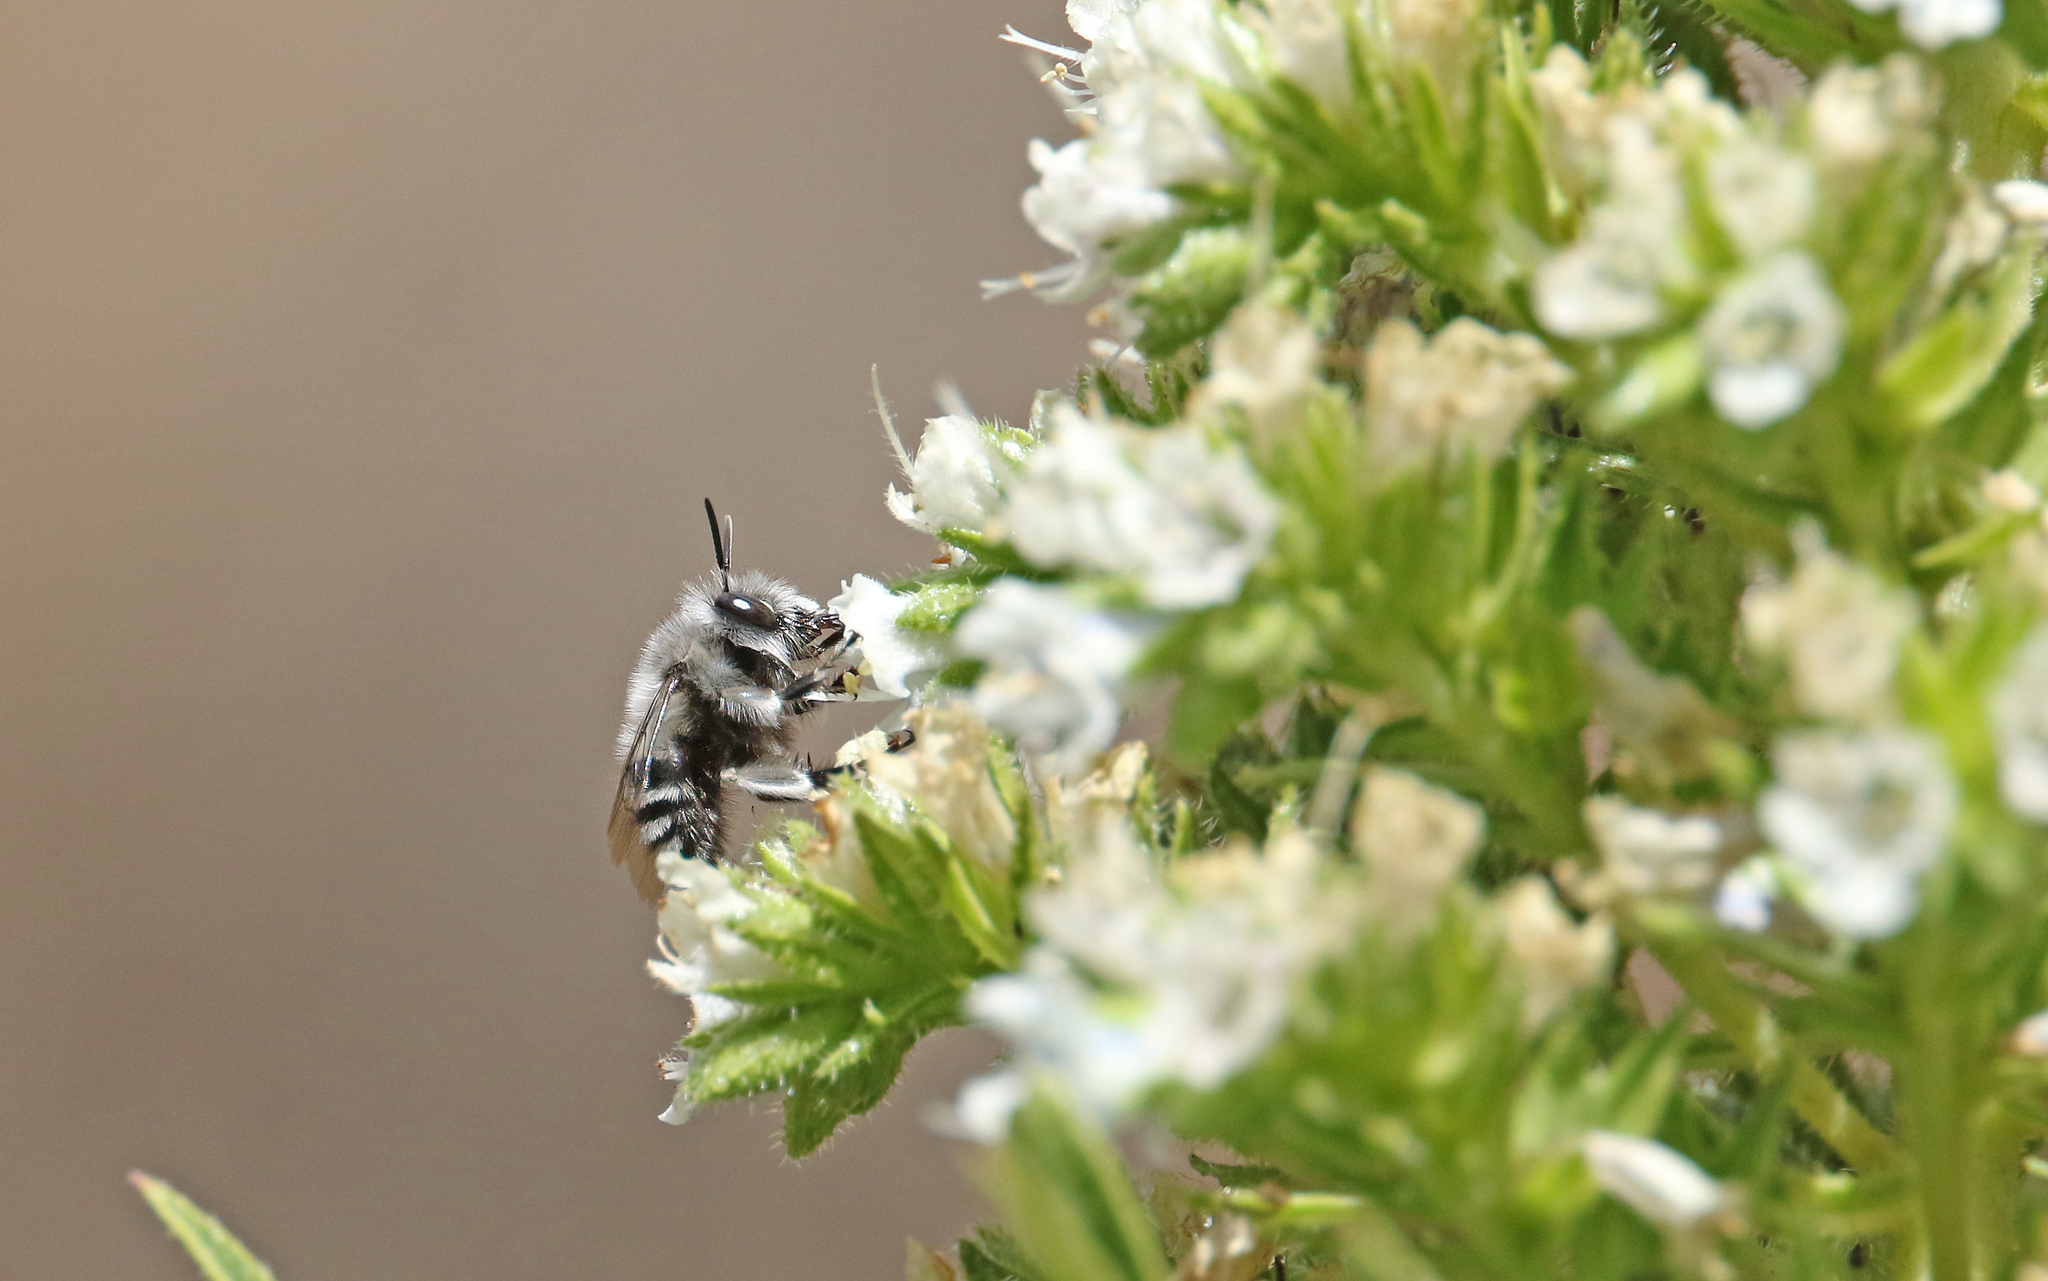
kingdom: Animalia
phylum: Arthropoda
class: Insecta
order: Hymenoptera
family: Apidae
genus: Anthophora
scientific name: Anthophora alluaudi
